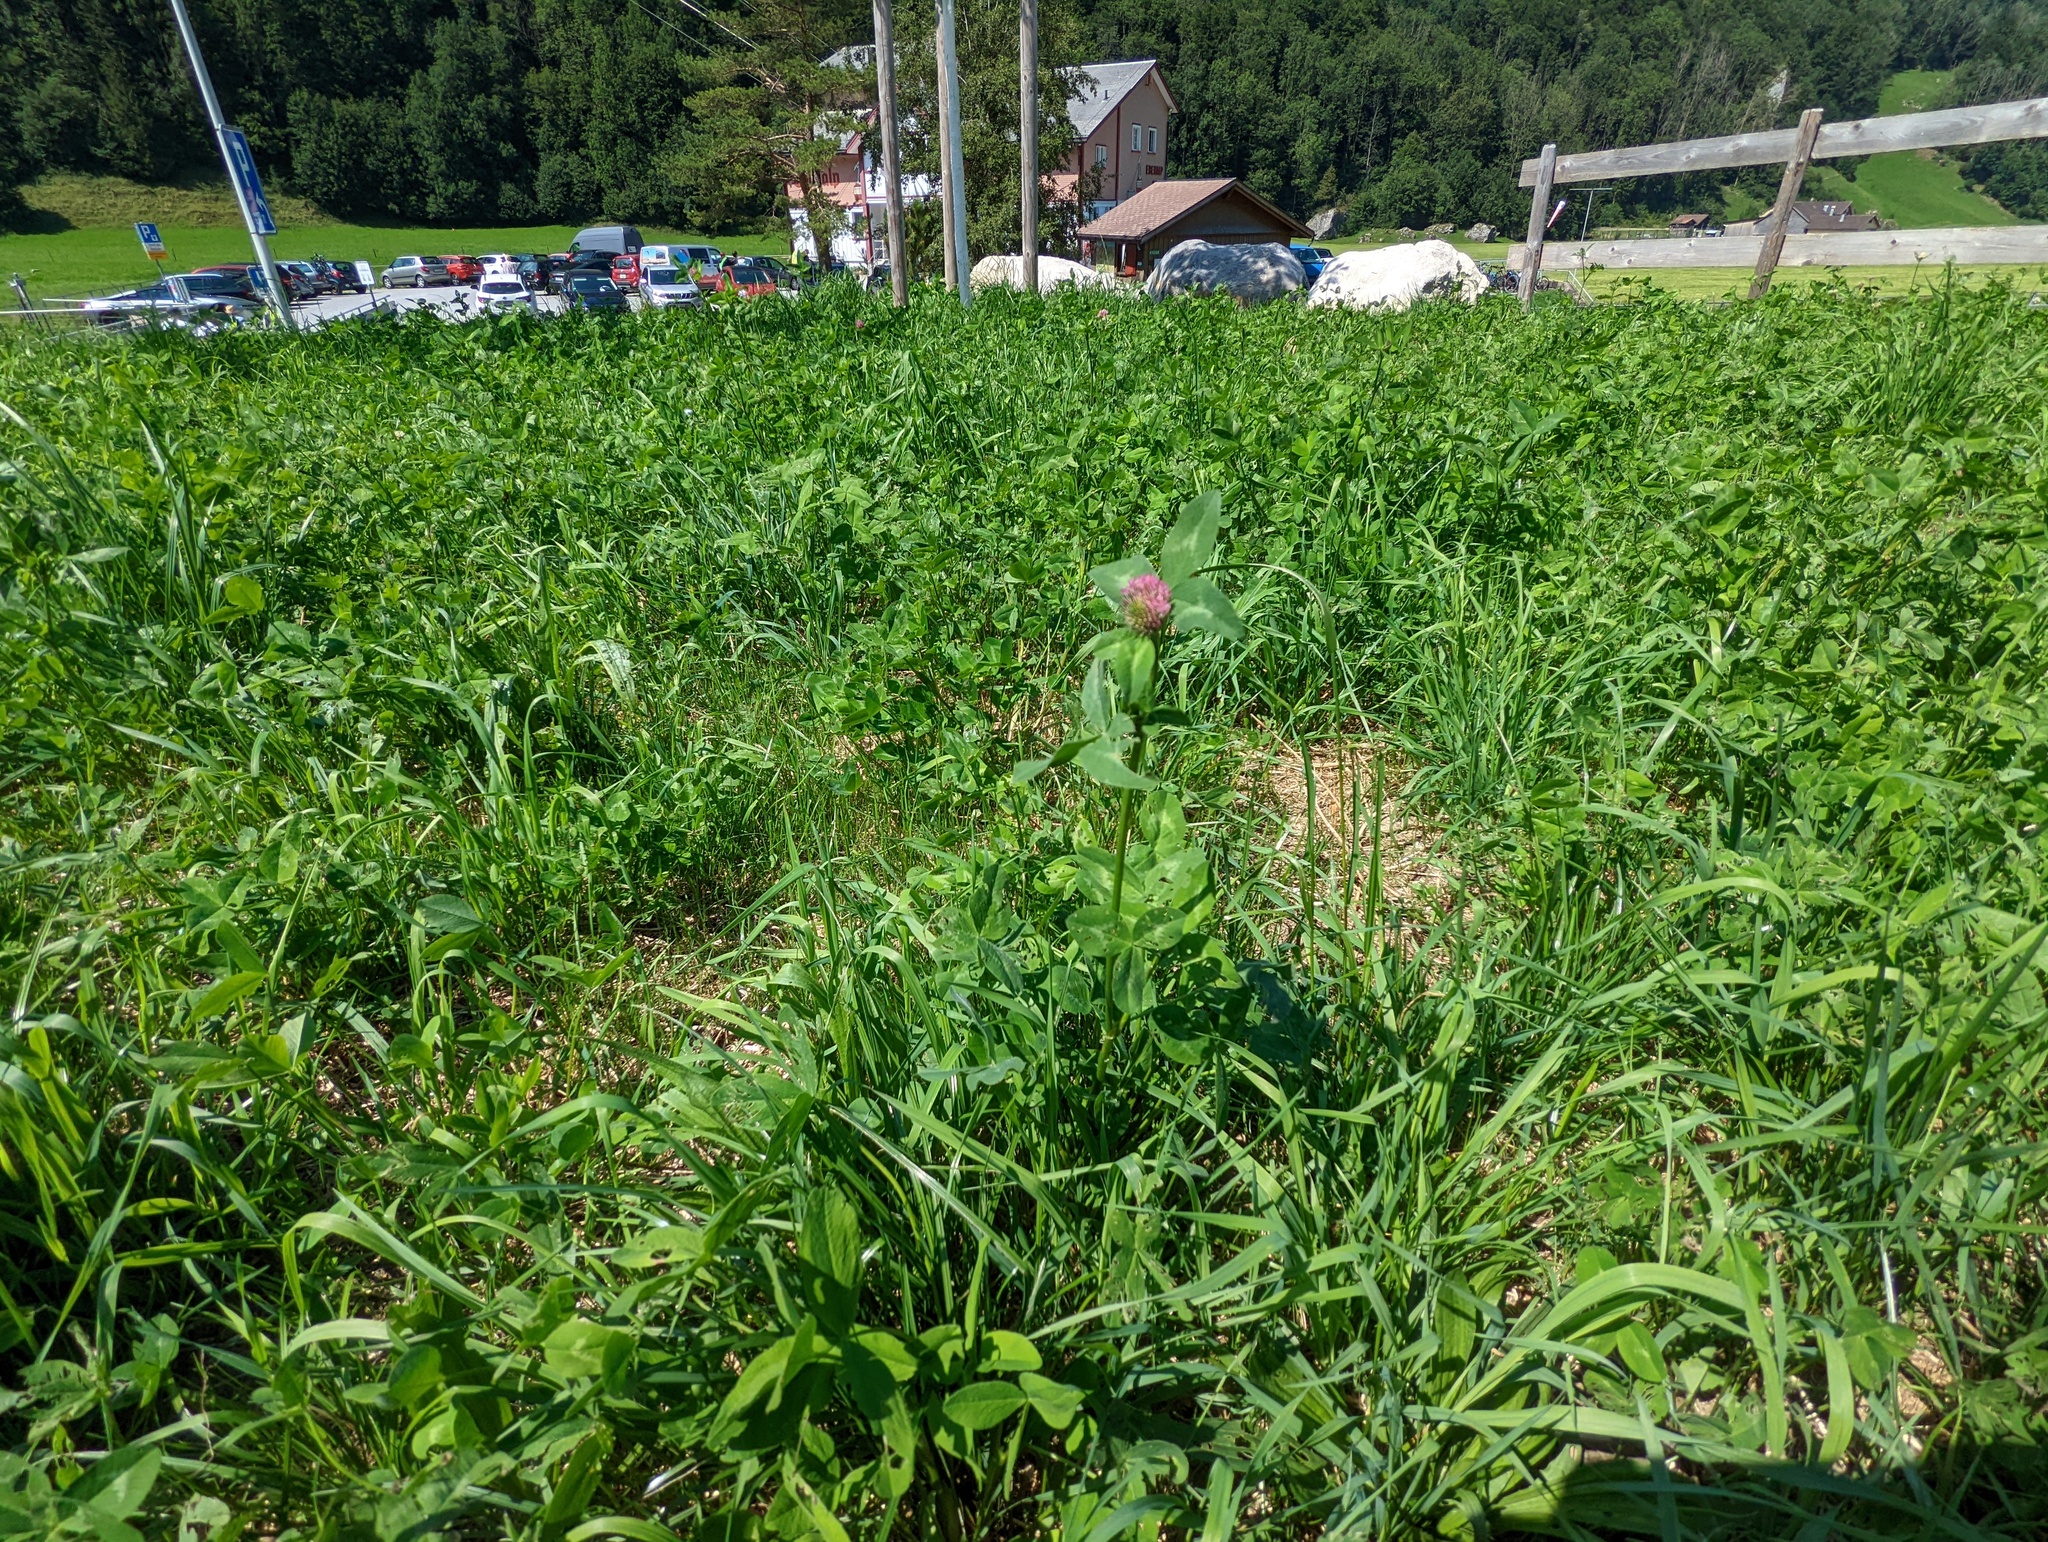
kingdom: Plantae
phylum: Tracheophyta
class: Magnoliopsida
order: Fabales
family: Fabaceae
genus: Trifolium
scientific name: Trifolium pratense
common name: Red clover
